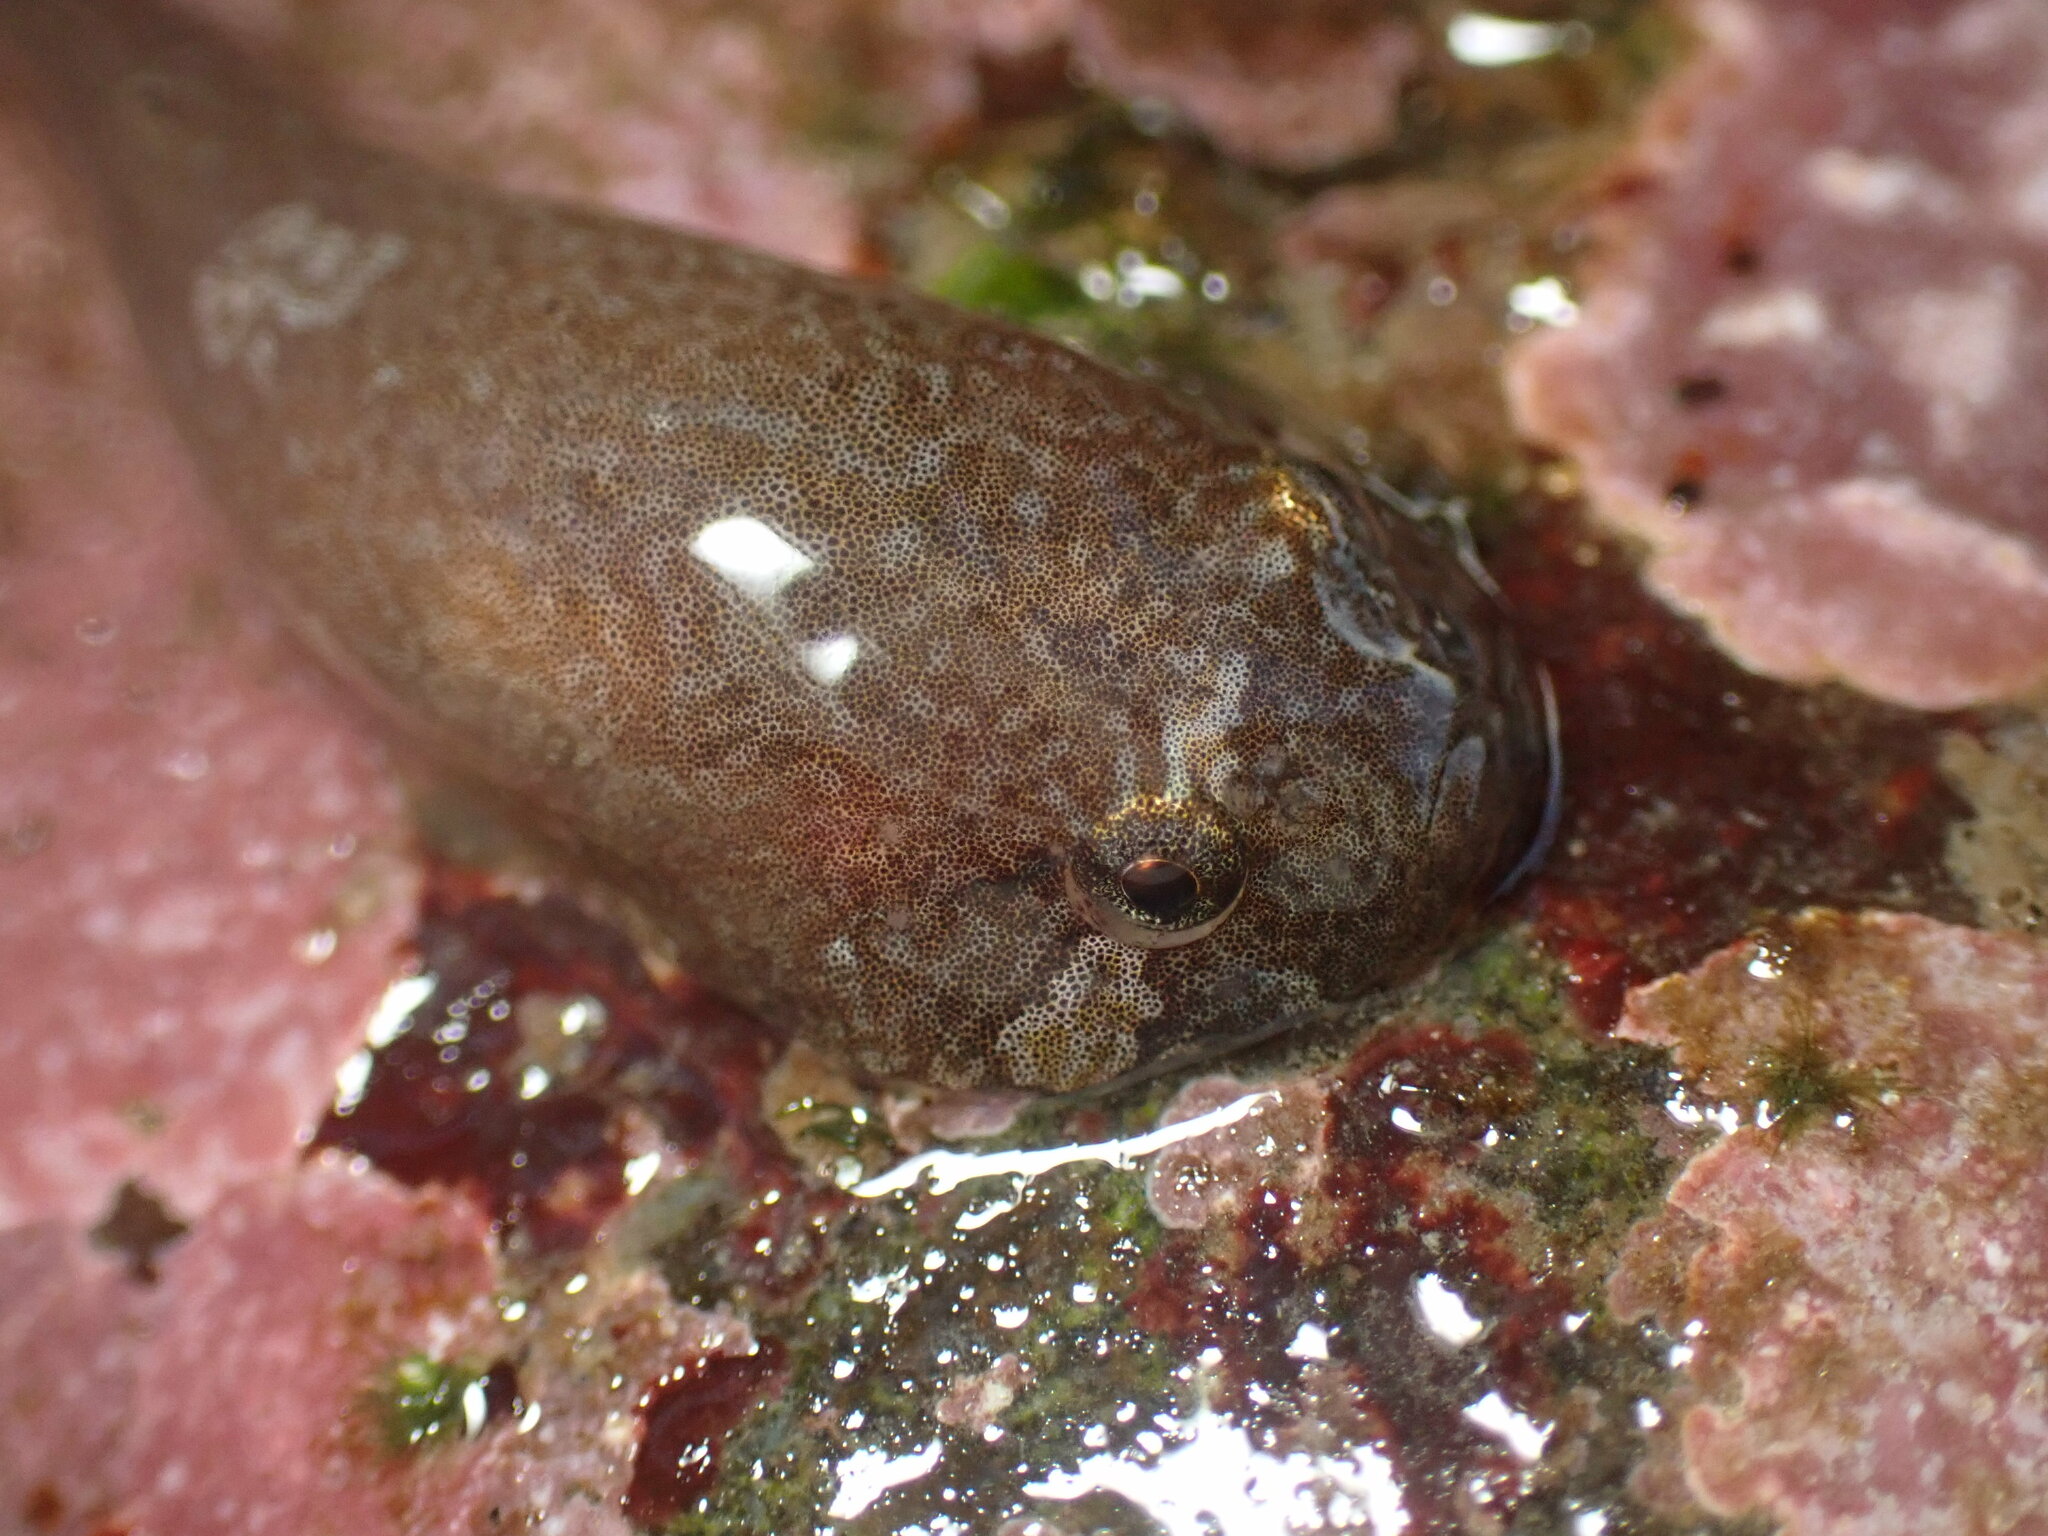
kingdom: Animalia
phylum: Chordata
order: Gobiesociformes
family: Gobiesocidae
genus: Gobiesox
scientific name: Gobiesox rhessodon
